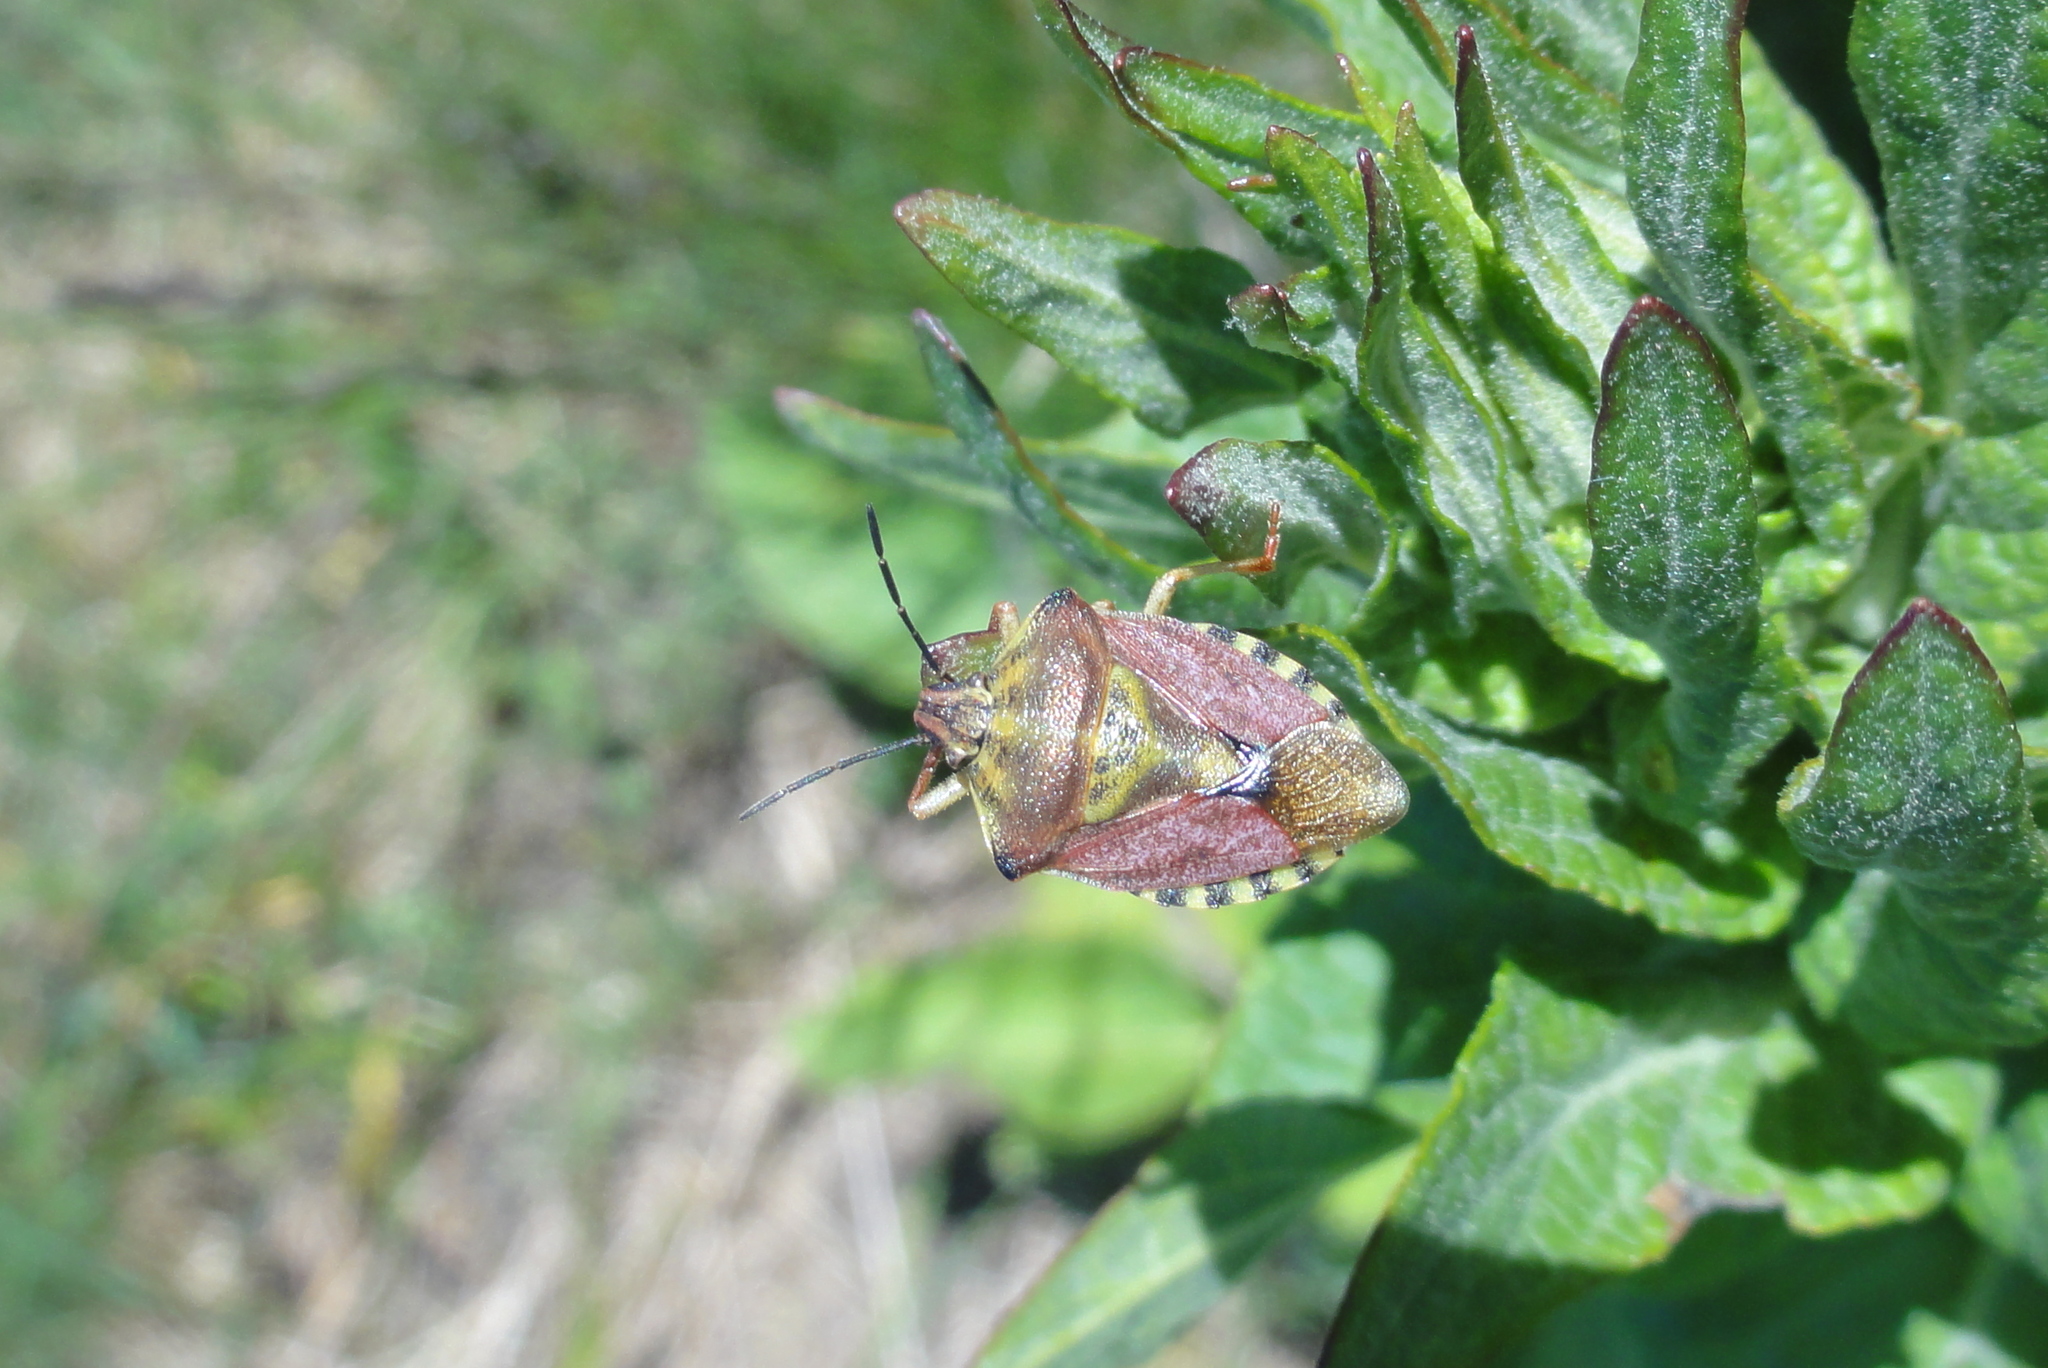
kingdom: Animalia
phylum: Arthropoda
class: Insecta
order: Hemiptera
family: Pentatomidae
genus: Carpocoris
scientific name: Carpocoris purpureipennis
